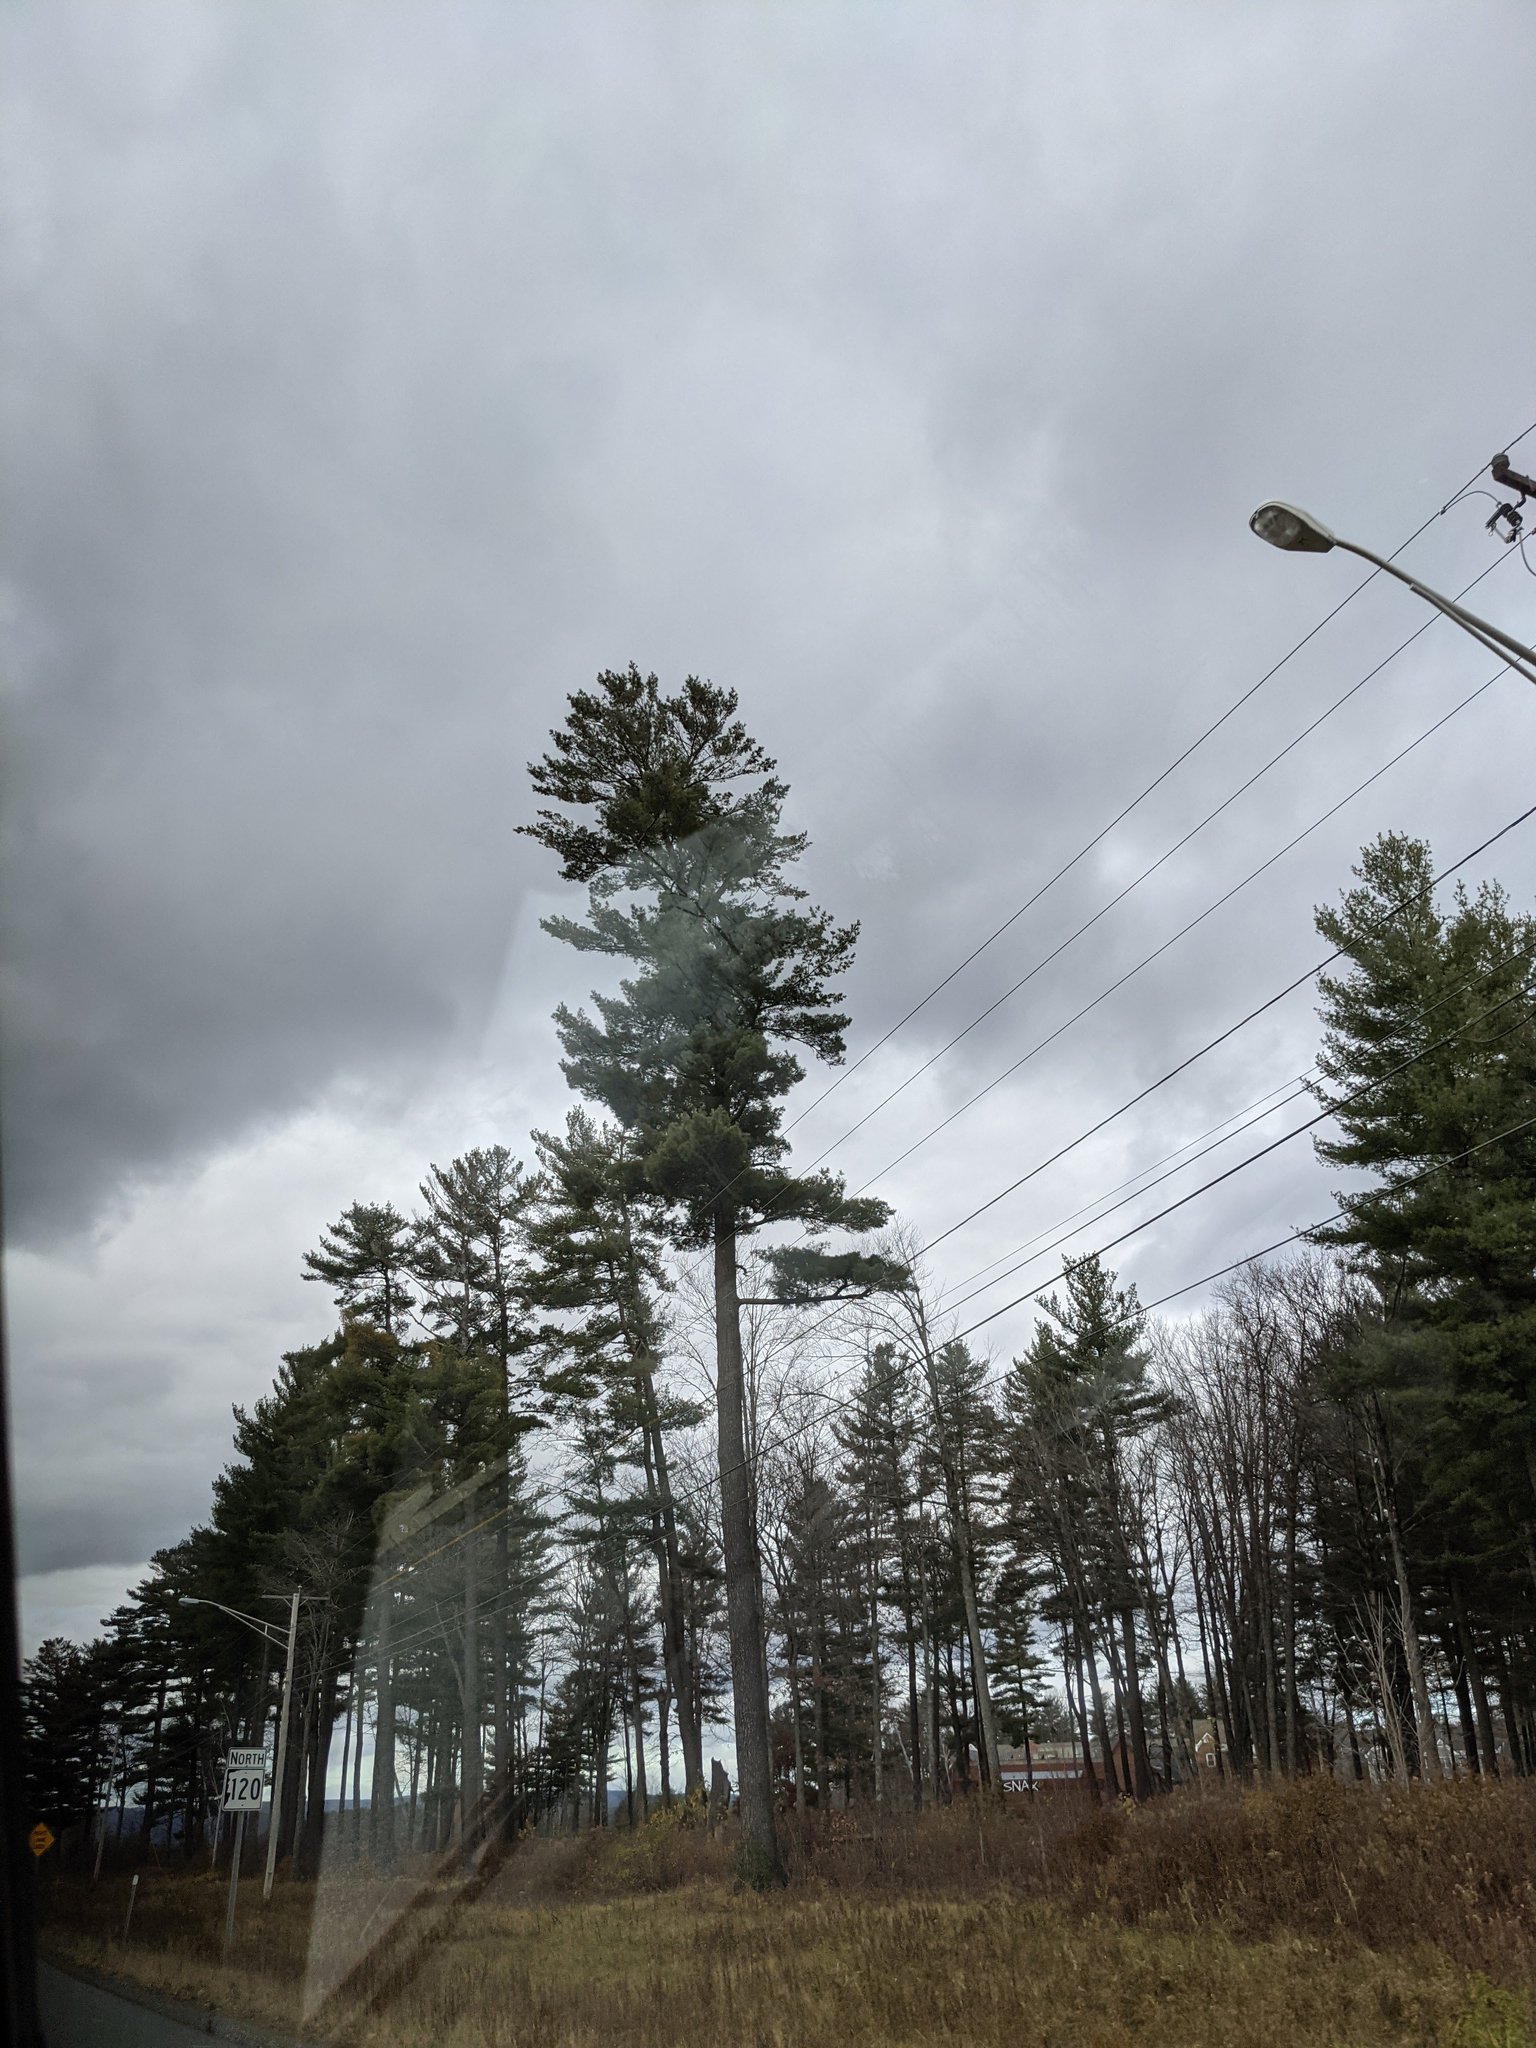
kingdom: Plantae
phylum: Tracheophyta
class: Pinopsida
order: Pinales
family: Pinaceae
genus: Pinus
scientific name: Pinus strobus
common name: Weymouth pine
